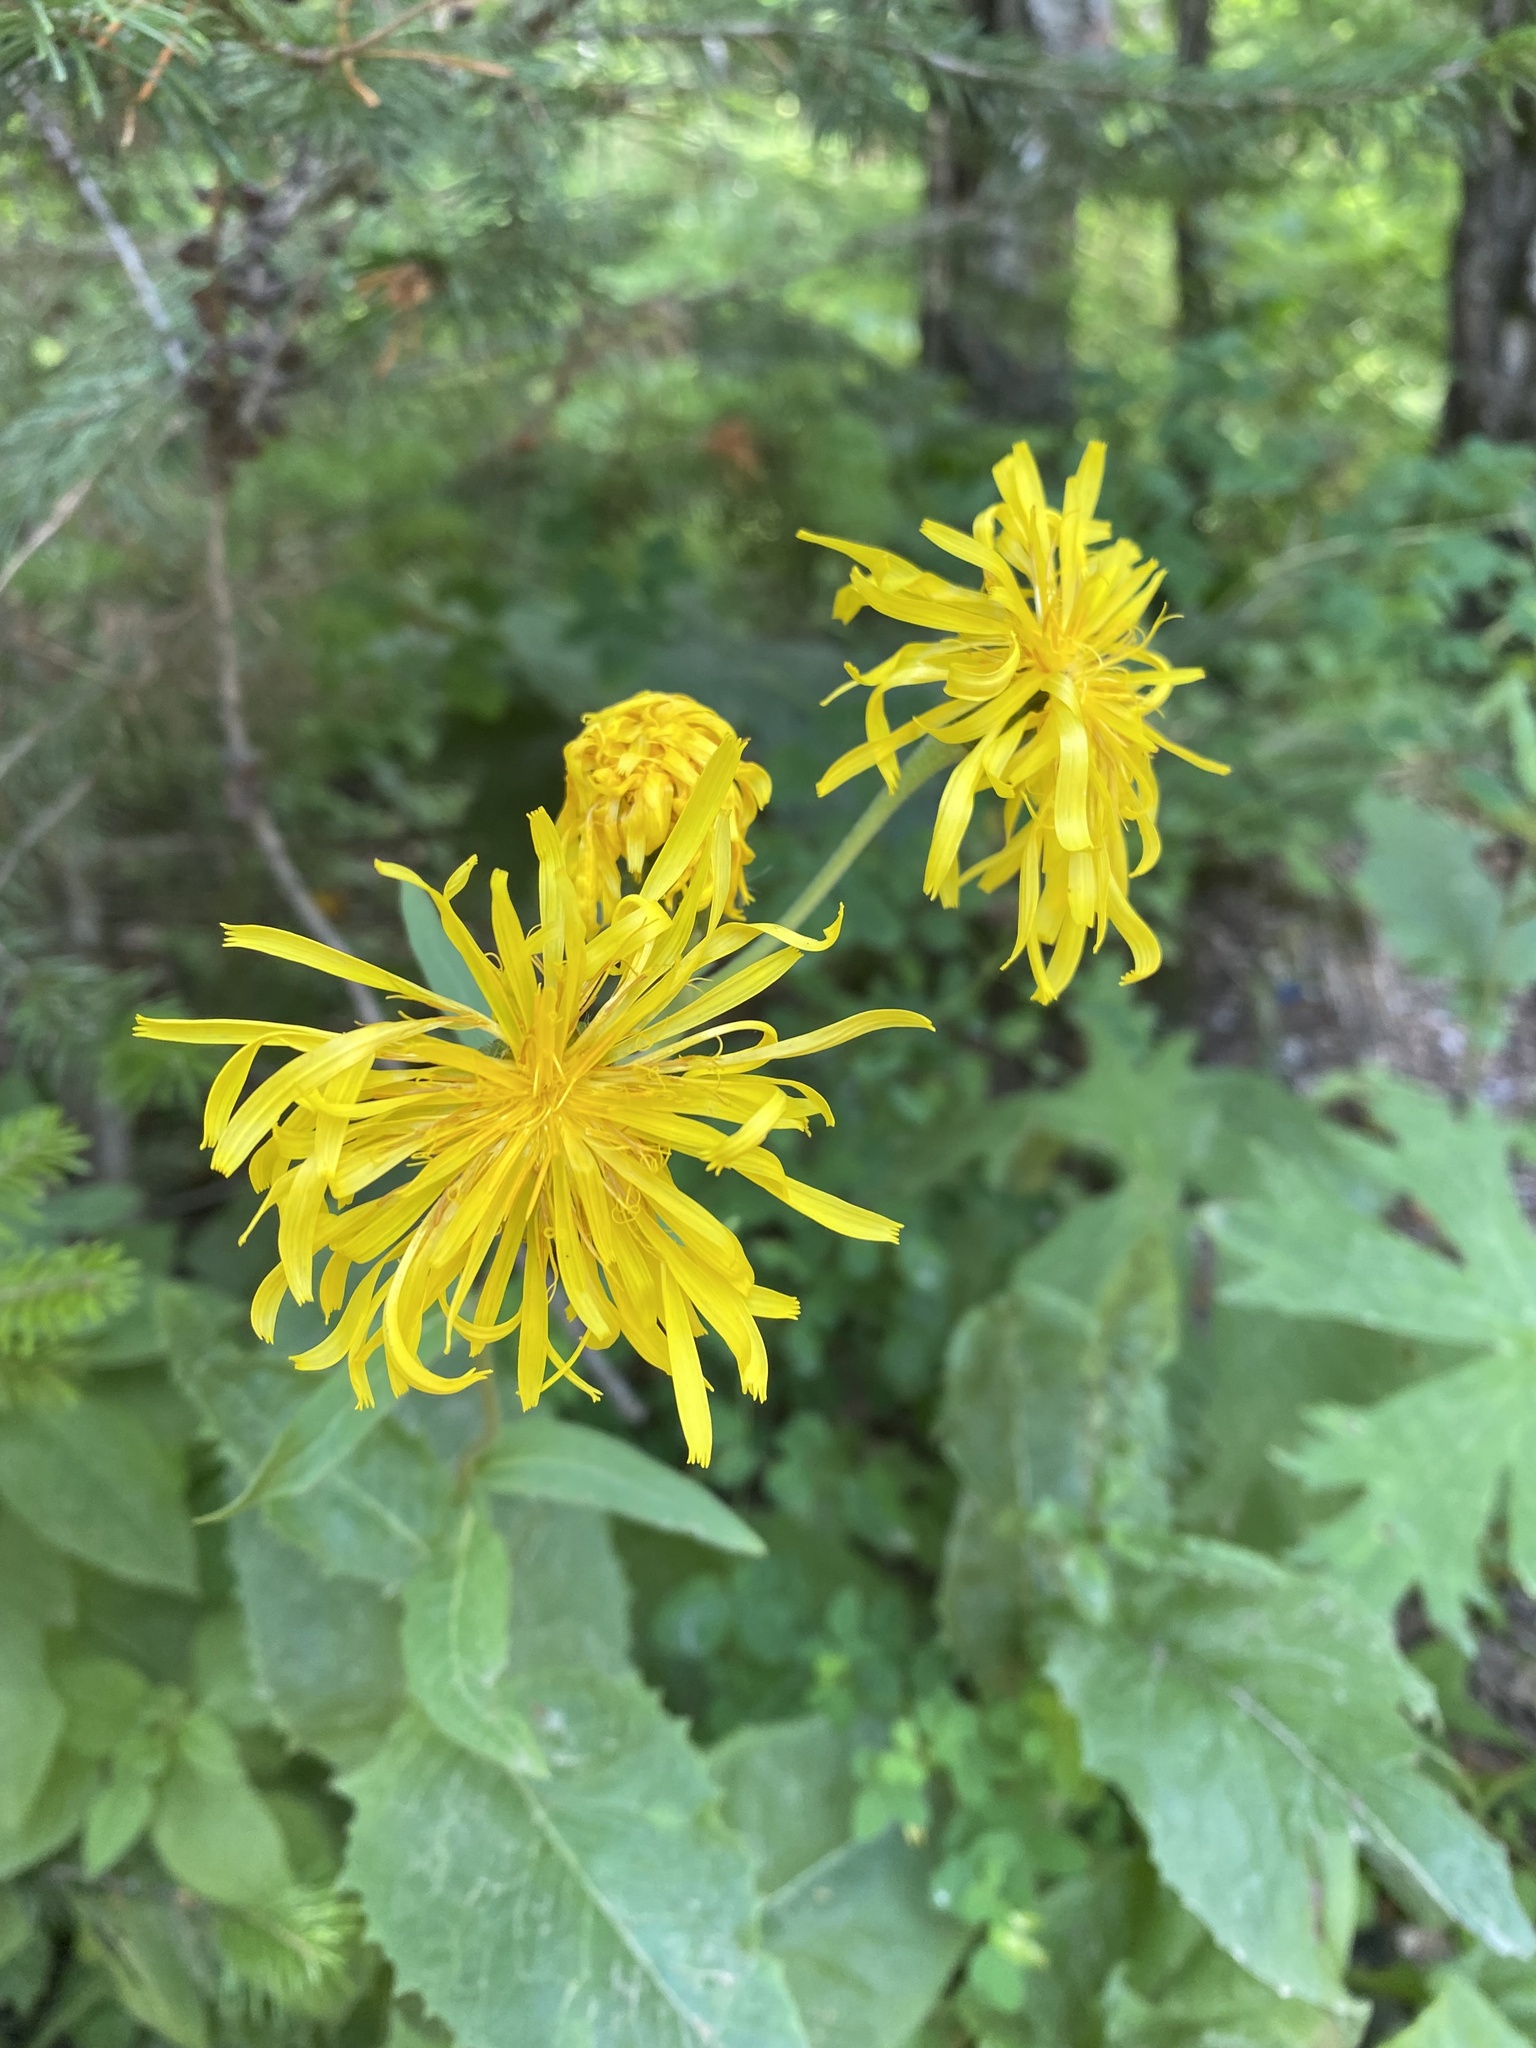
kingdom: Plantae
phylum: Tracheophyta
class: Magnoliopsida
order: Asterales
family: Asteraceae
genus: Crepis
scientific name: Crepis sibirica
